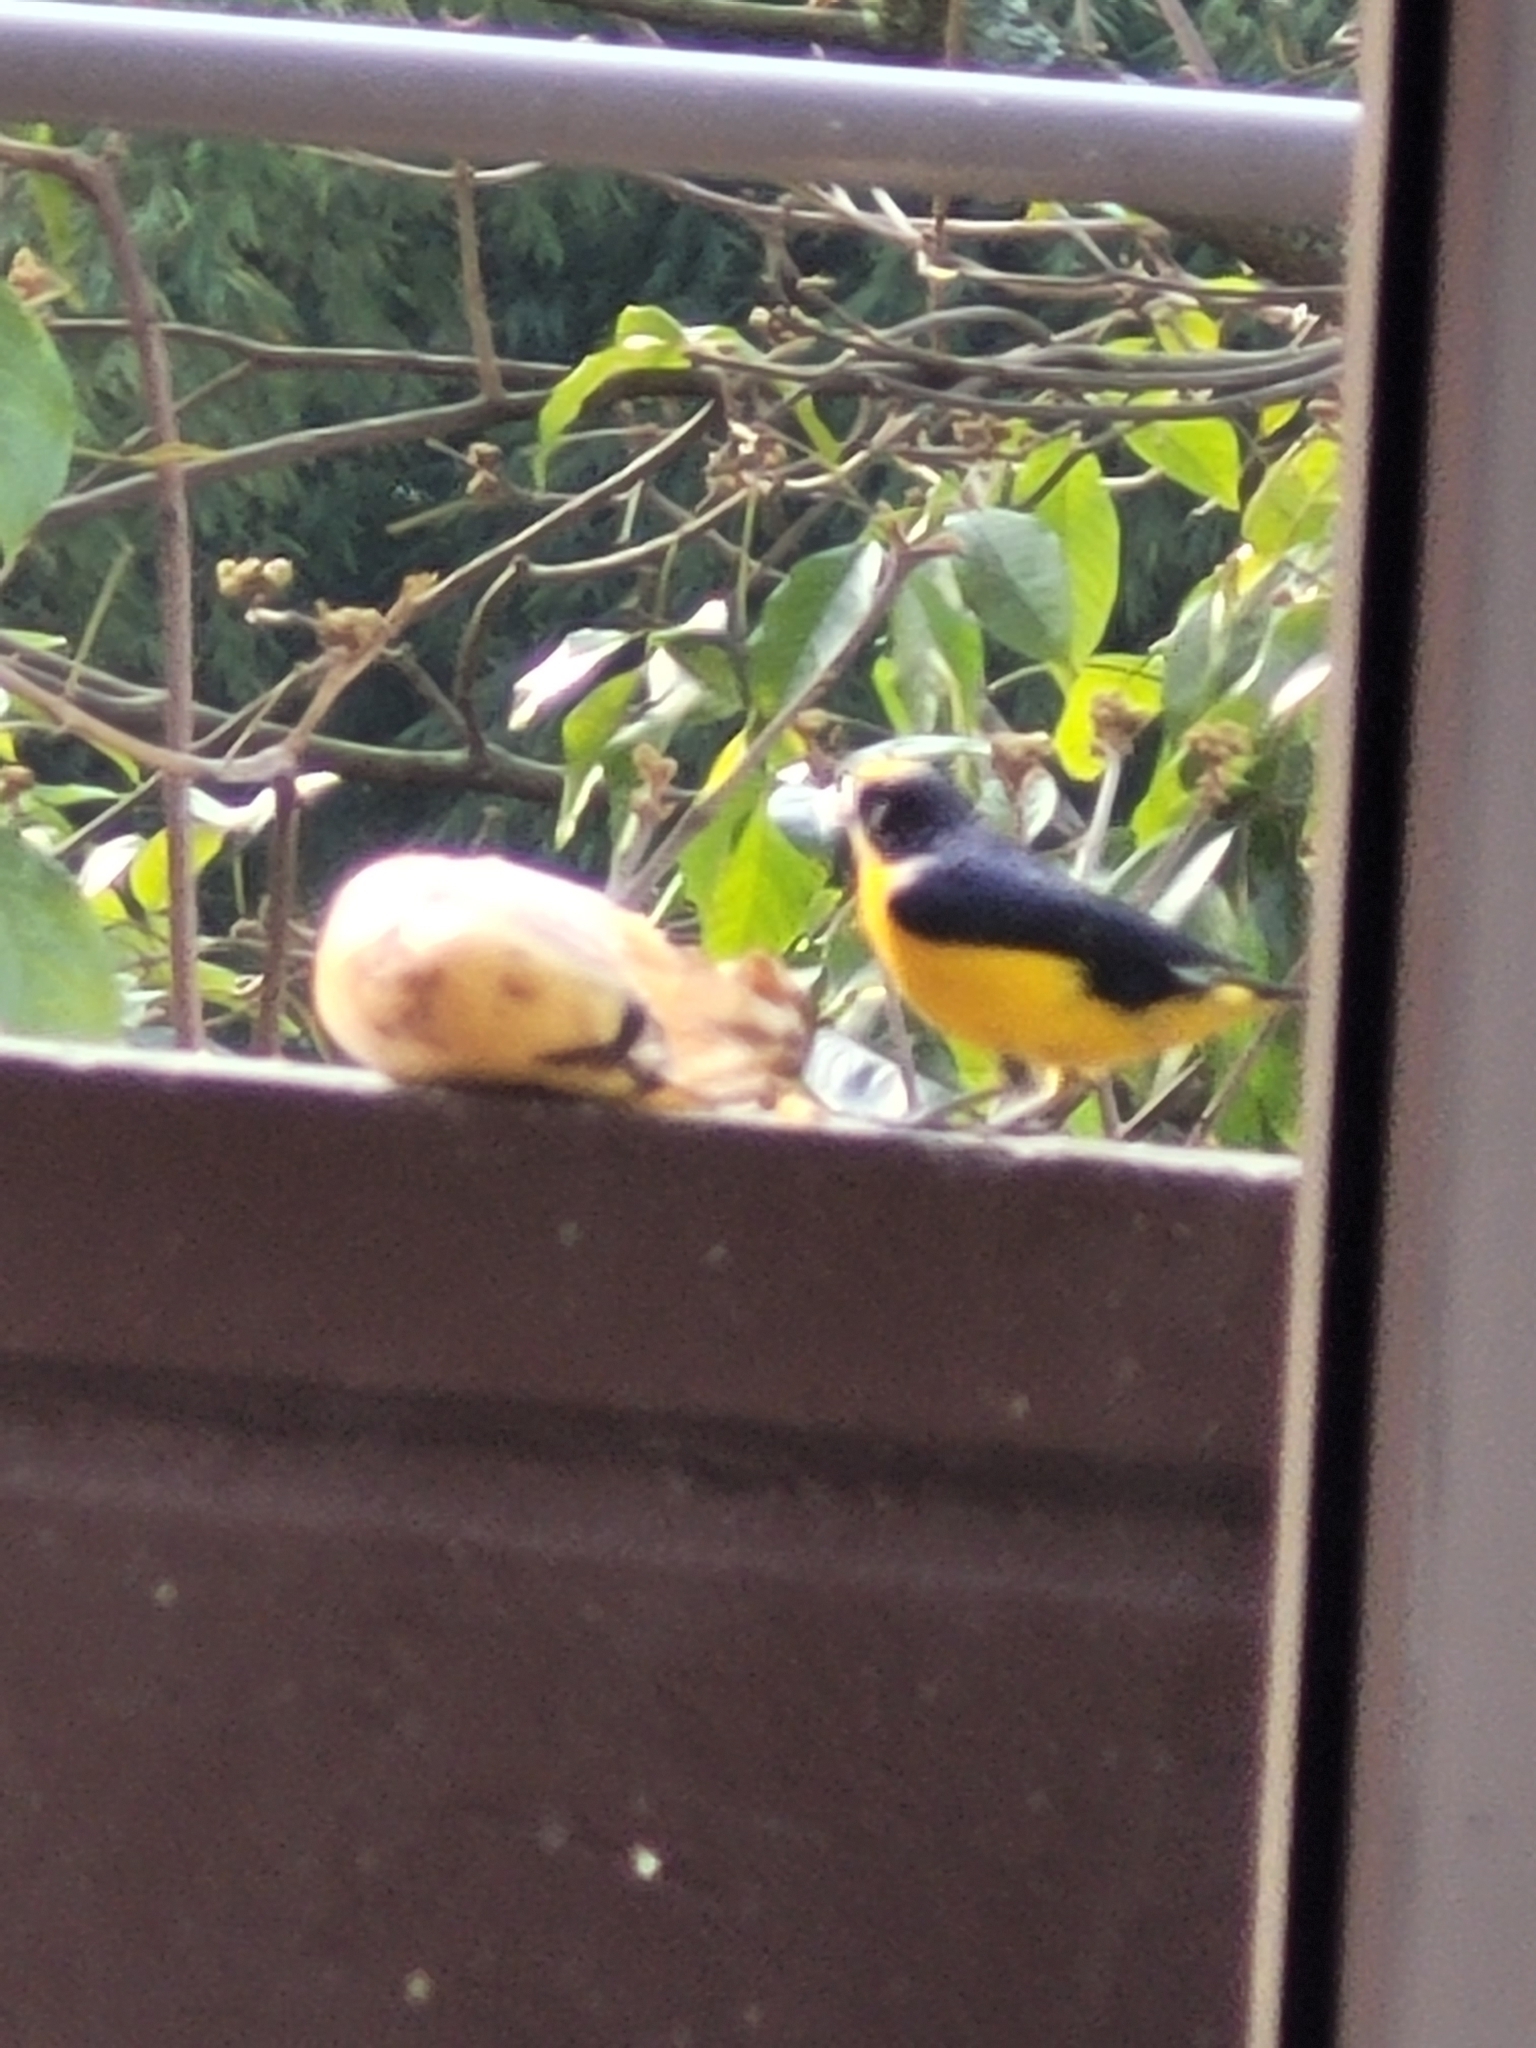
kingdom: Animalia
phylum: Chordata
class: Aves
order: Passeriformes
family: Fringillidae
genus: Euphonia
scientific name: Euphonia laniirostris
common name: Thick-billed euphonia
